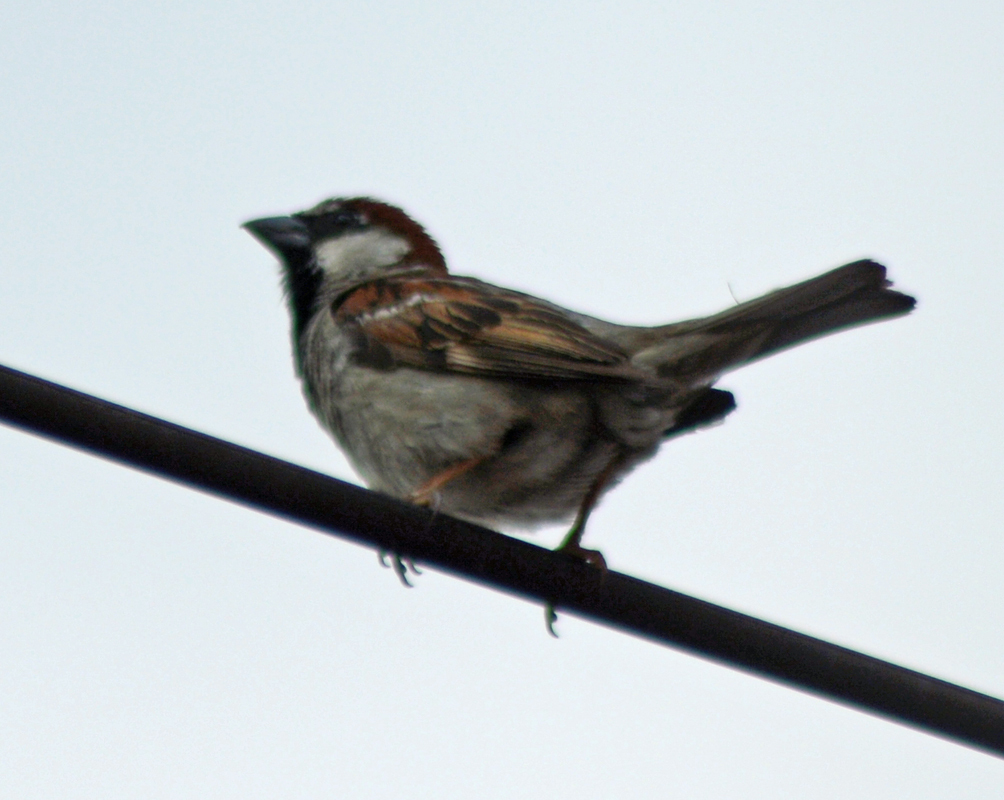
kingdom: Animalia
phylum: Chordata
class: Aves
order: Passeriformes
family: Passeridae
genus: Passer
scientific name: Passer domesticus
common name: House sparrow
